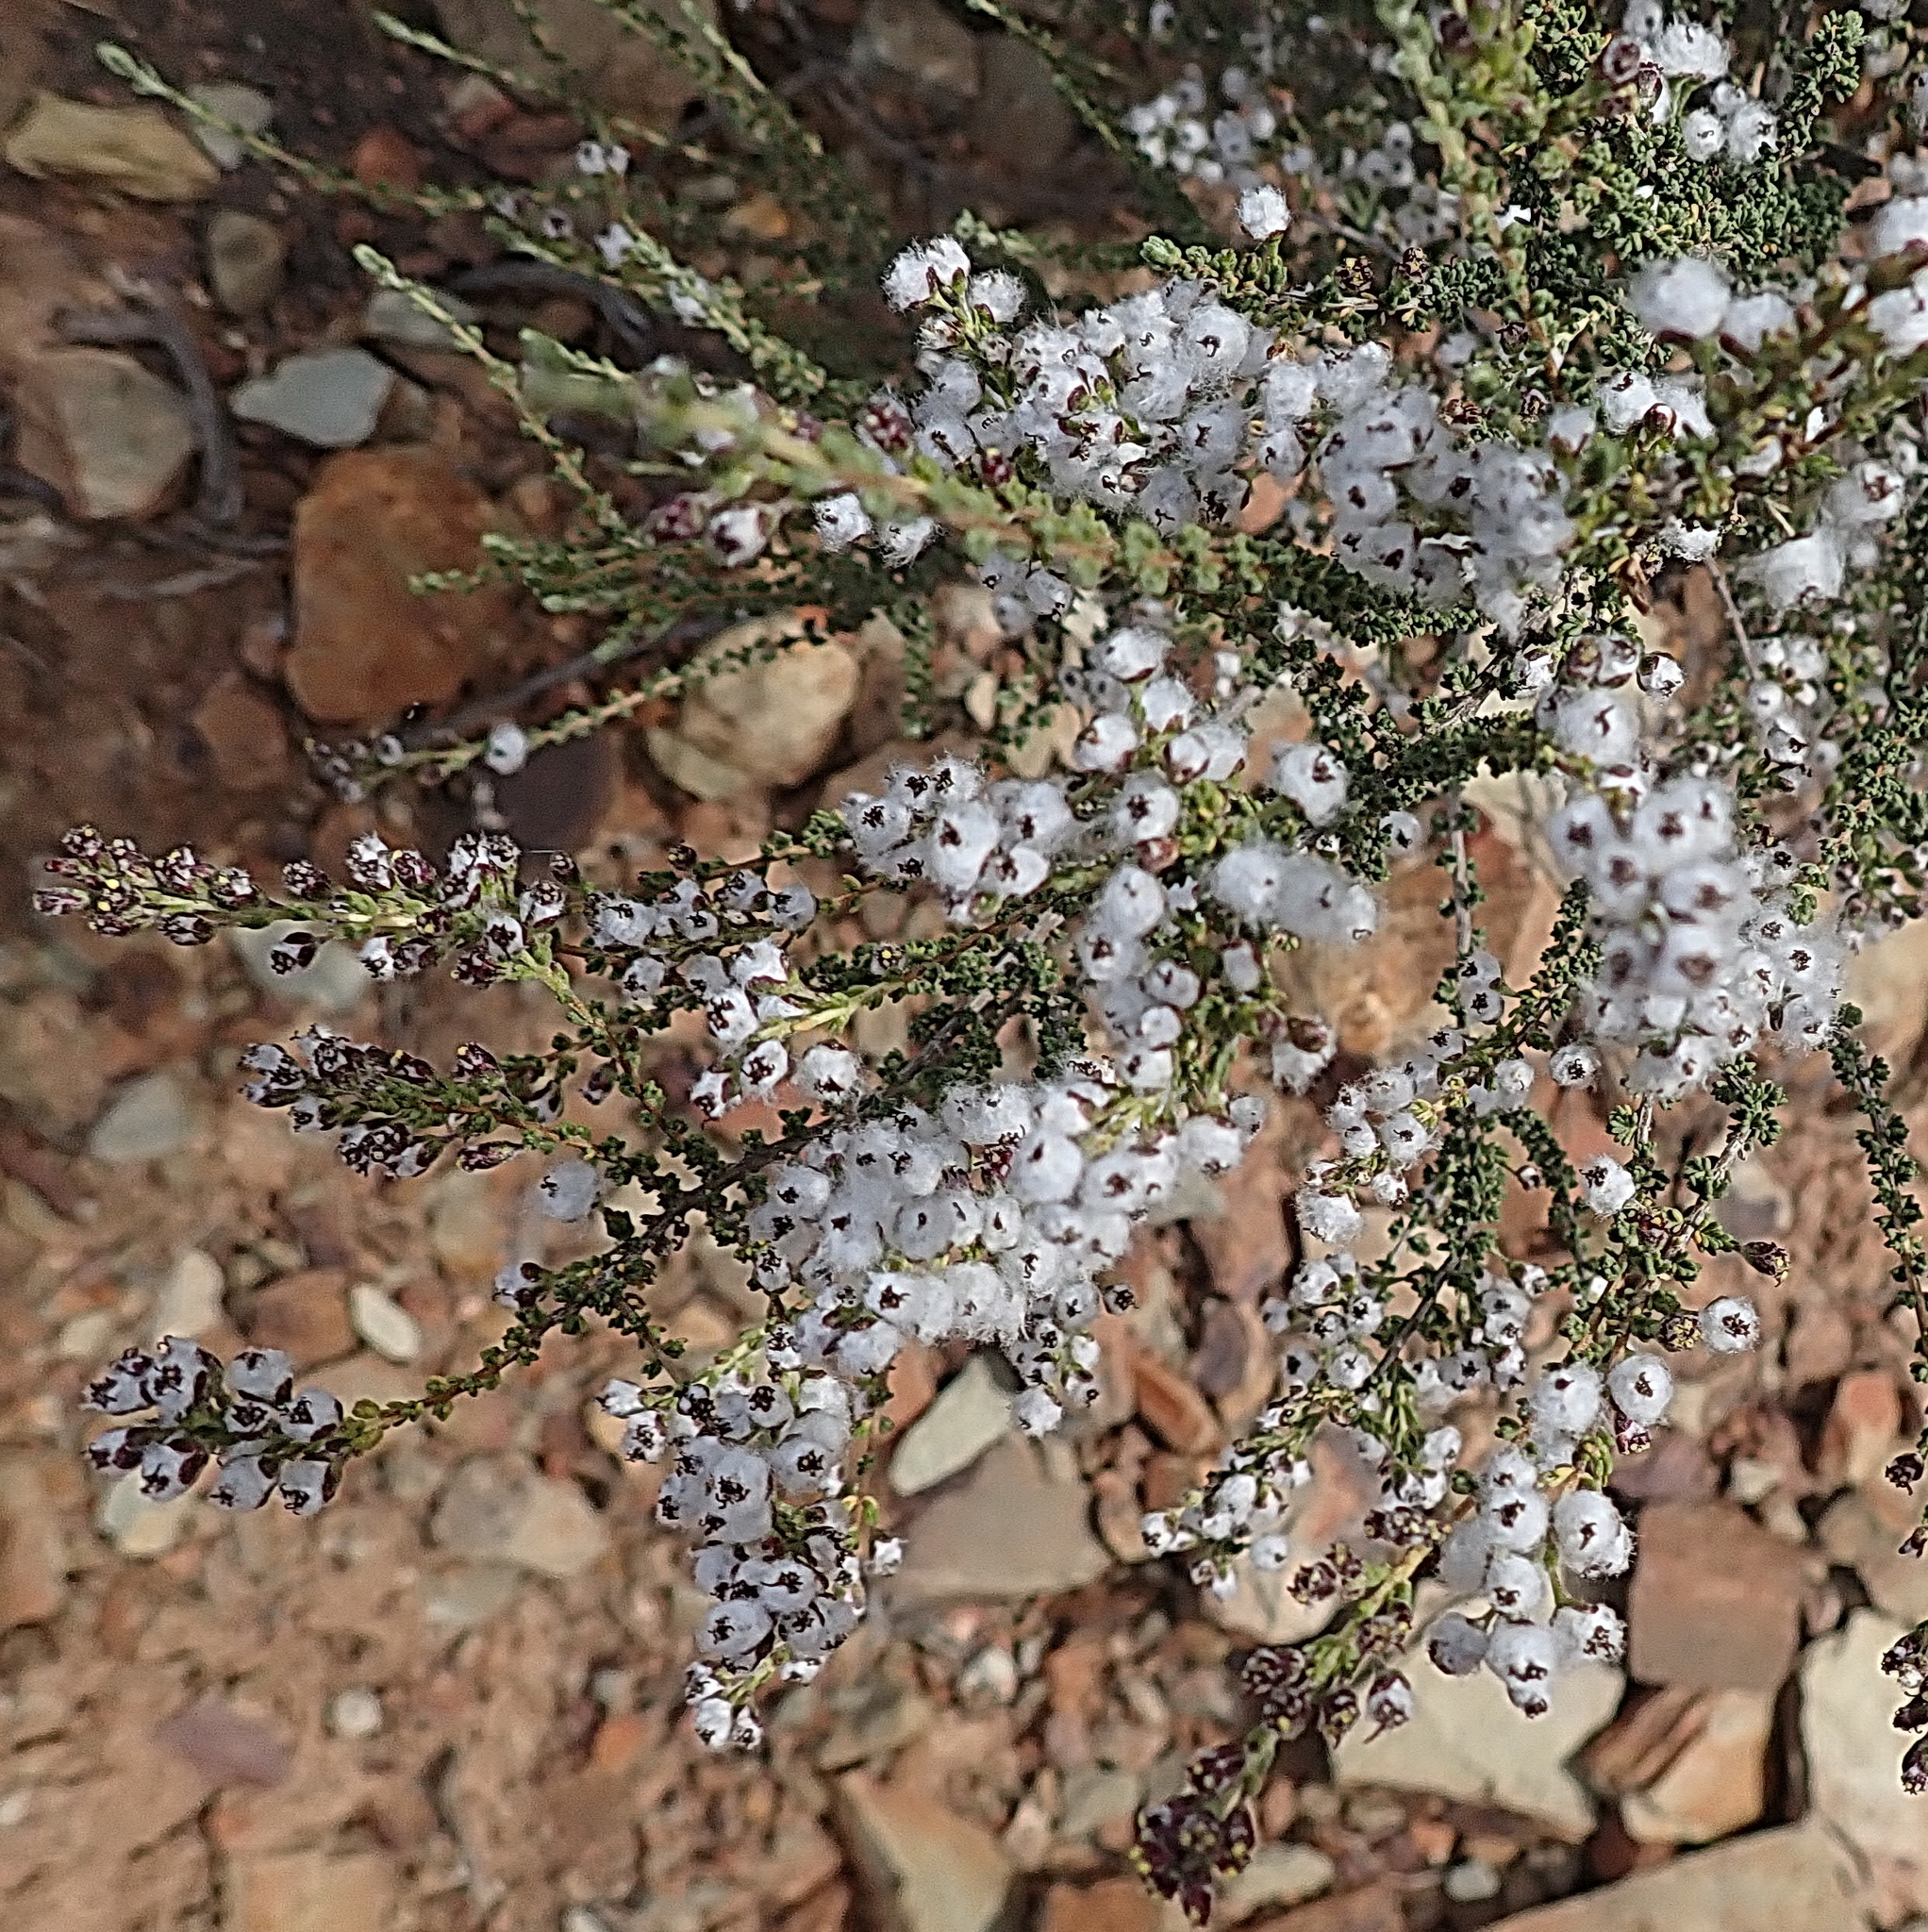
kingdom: Plantae
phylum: Tracheophyta
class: Magnoliopsida
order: Asterales
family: Asteraceae
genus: Eriocephalus
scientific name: Eriocephalus ericoides
